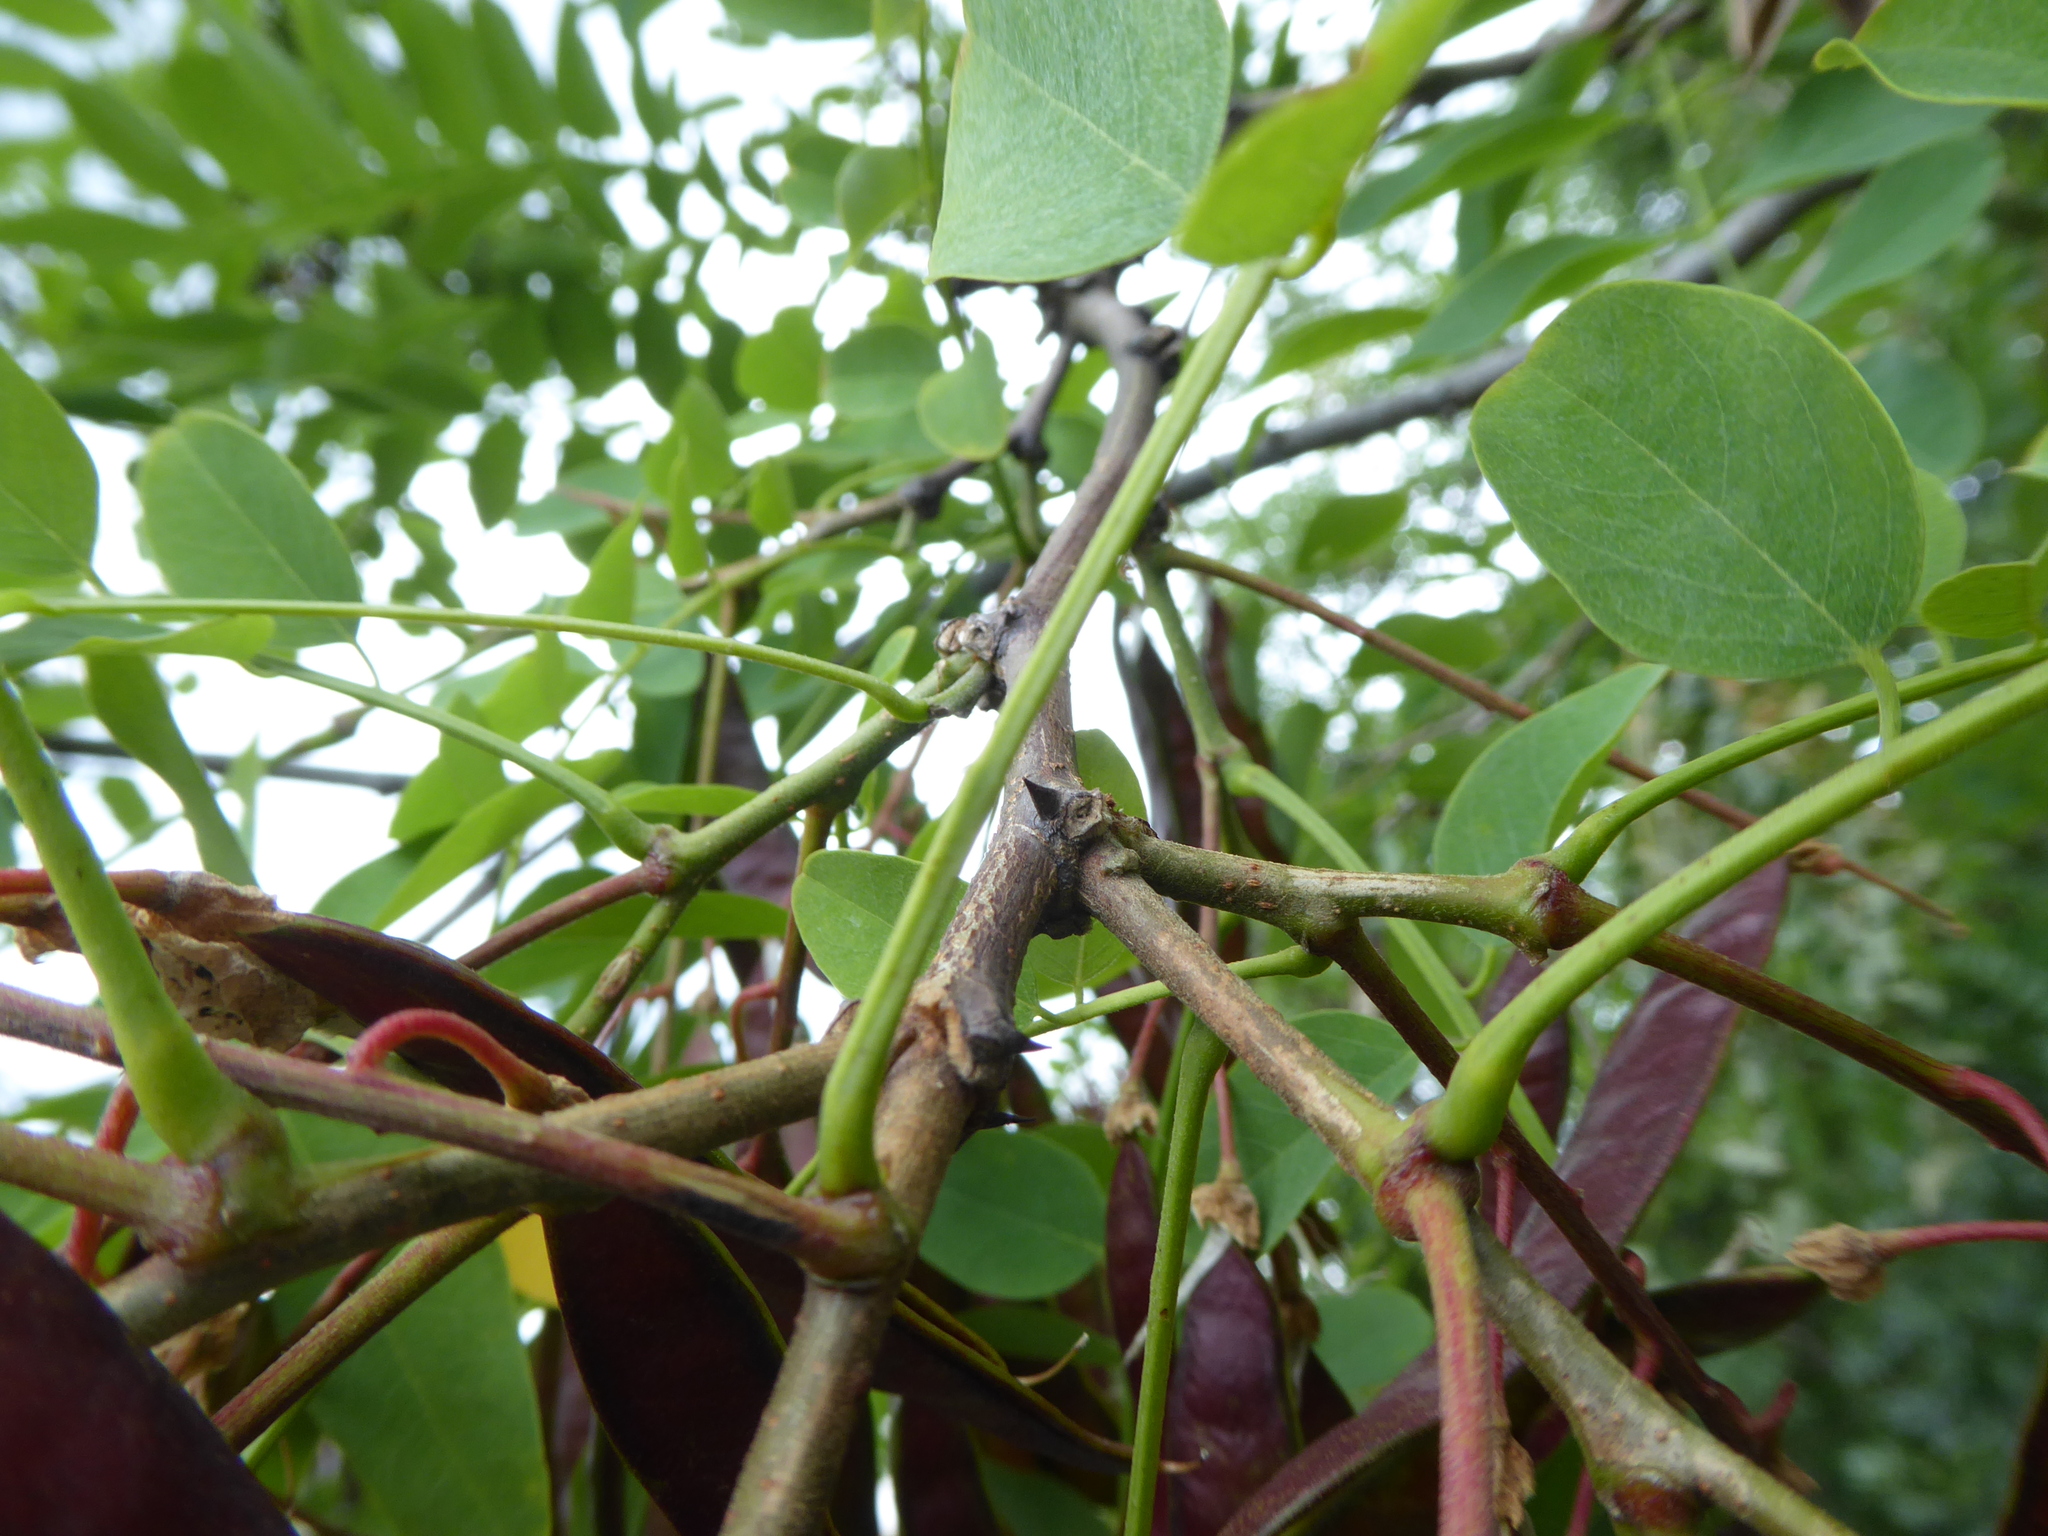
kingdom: Plantae
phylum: Tracheophyta
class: Magnoliopsida
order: Fabales
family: Fabaceae
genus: Robinia
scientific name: Robinia pseudoacacia
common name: Black locust
